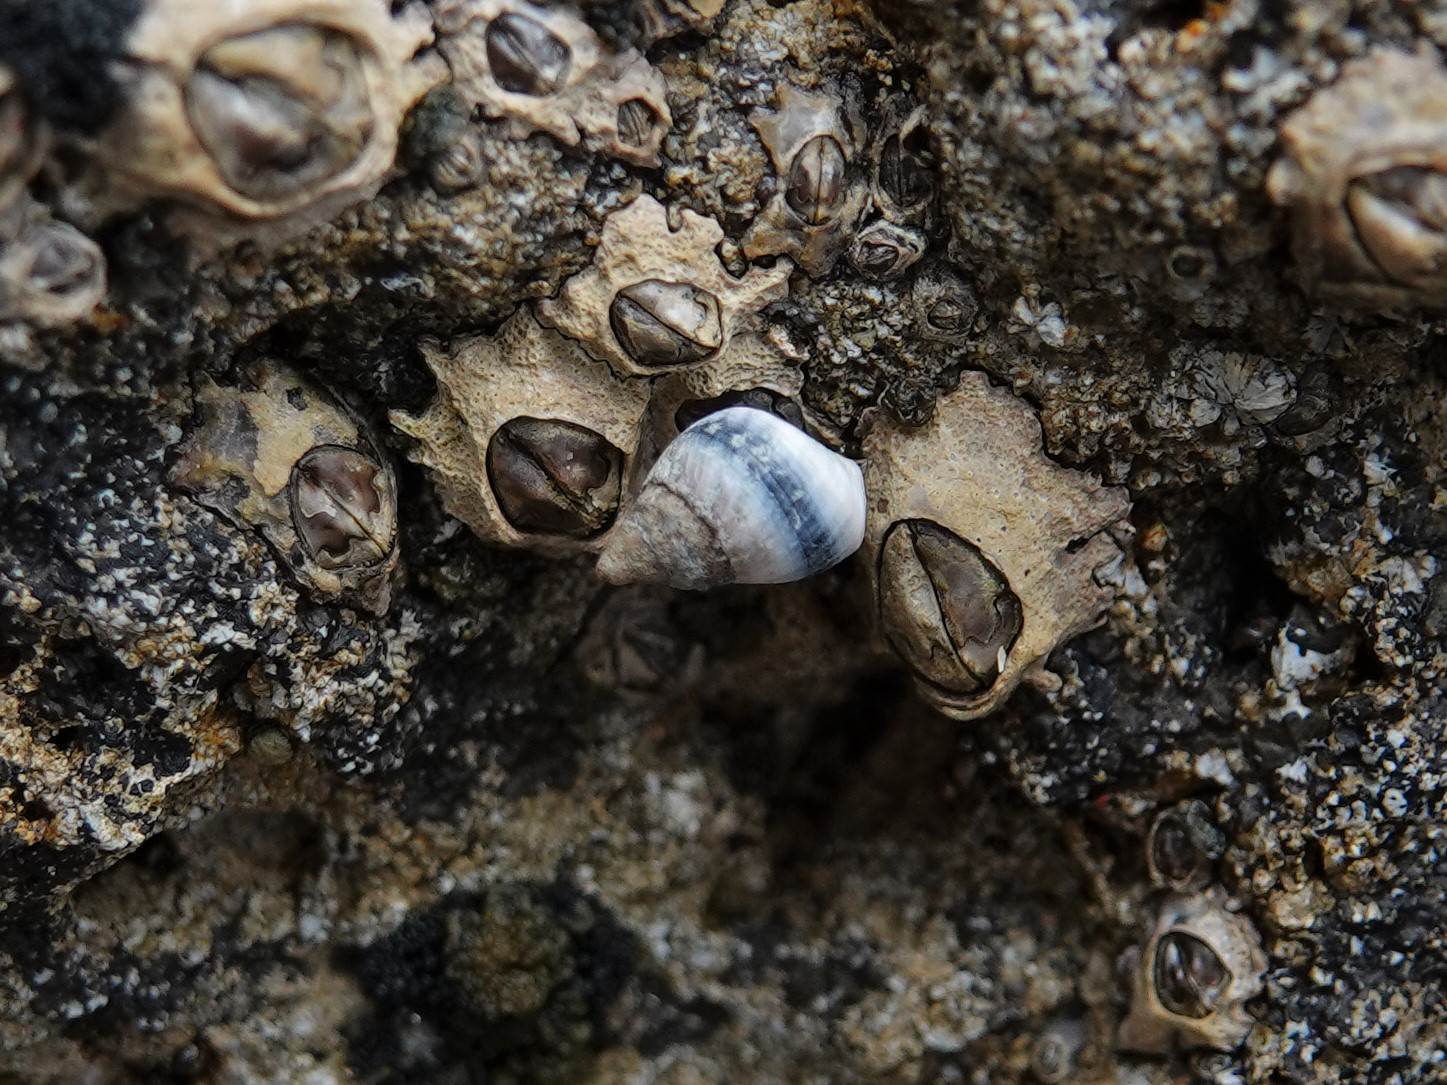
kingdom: Animalia
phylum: Mollusca
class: Gastropoda
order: Littorinimorpha
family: Littorinidae
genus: Austrolittorina
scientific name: Austrolittorina antipodum
